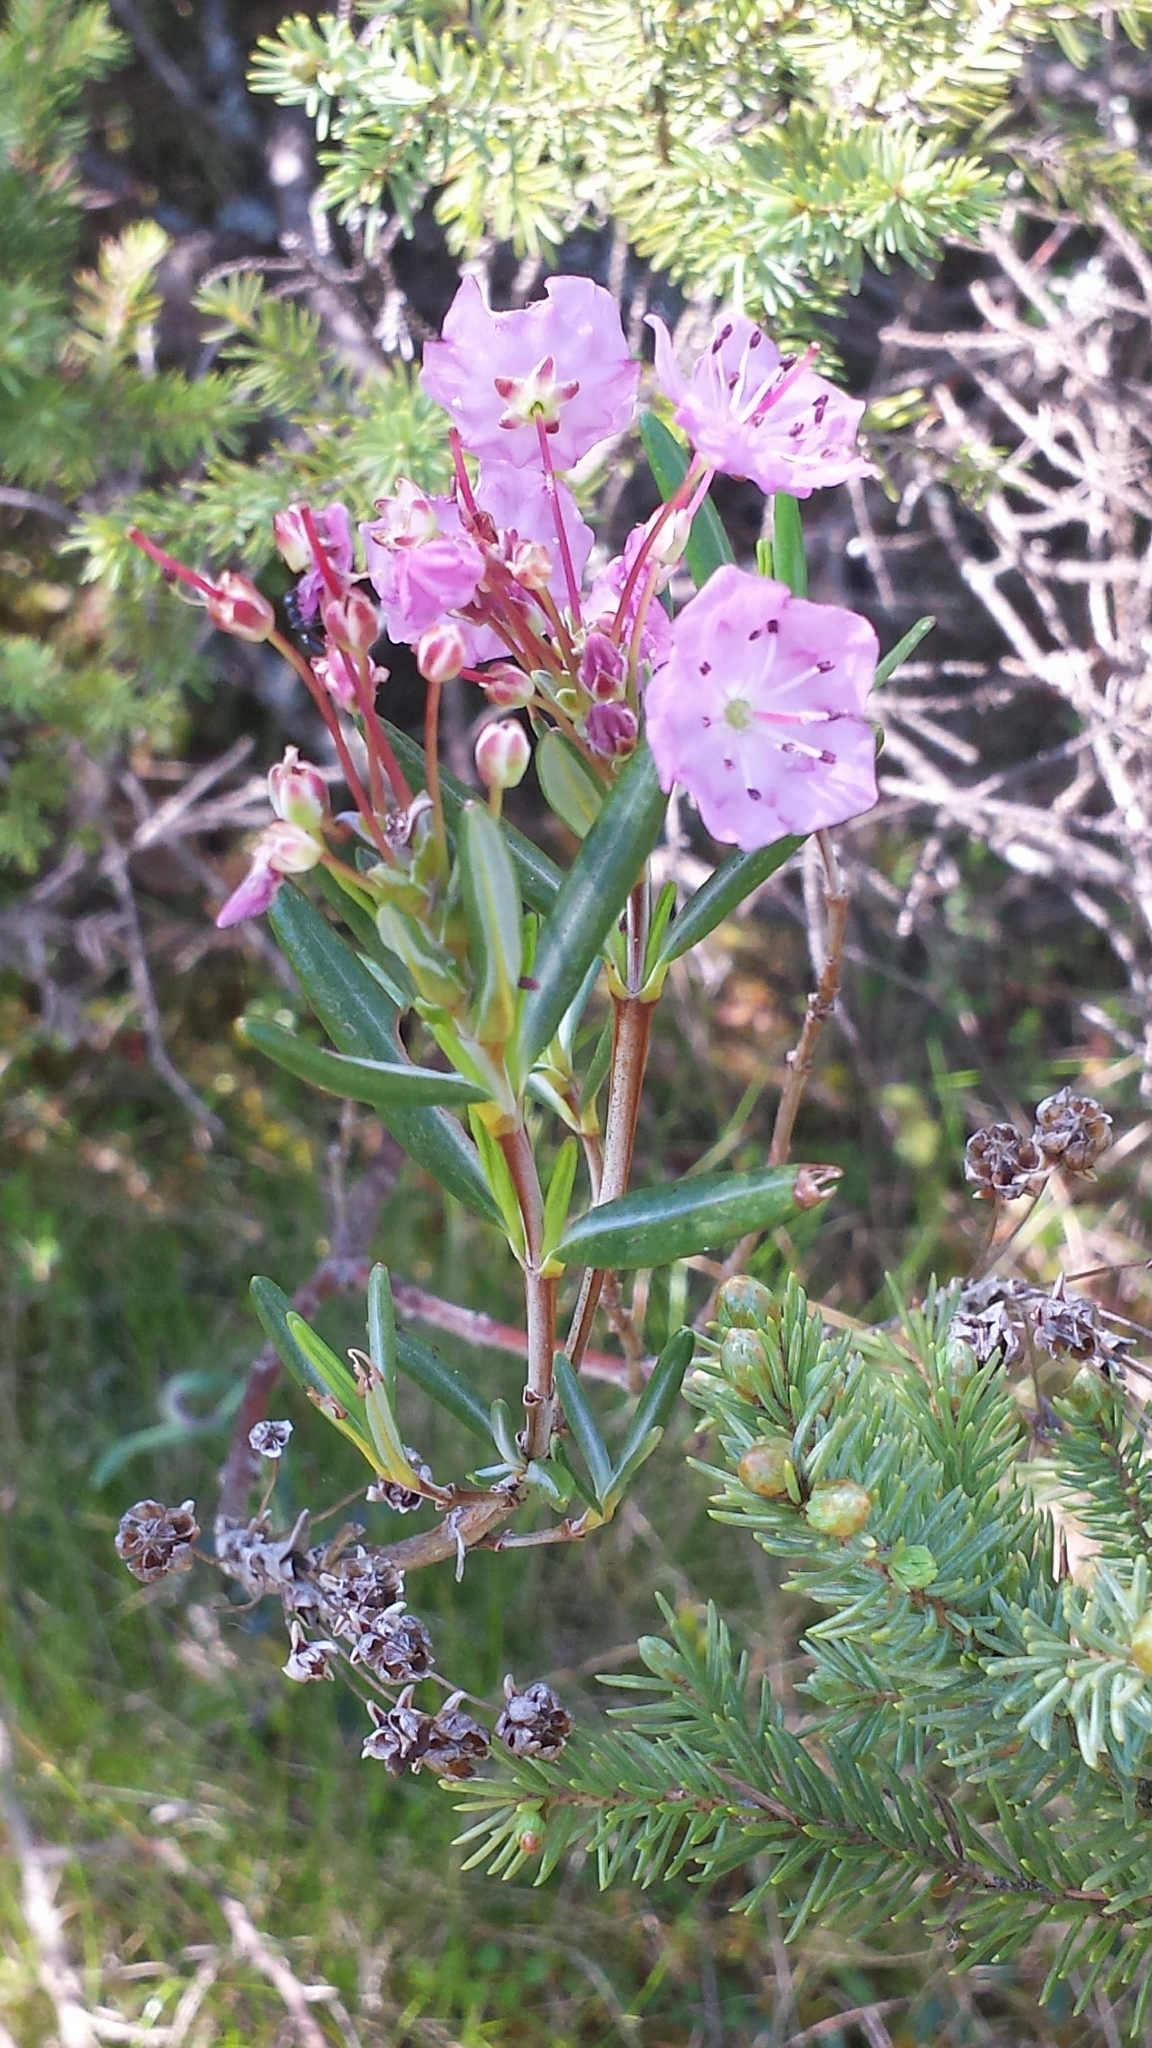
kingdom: Plantae
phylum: Tracheophyta
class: Magnoliopsida
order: Ericales
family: Ericaceae
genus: Kalmia
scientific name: Kalmia polifolia
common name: Bog-laurel
